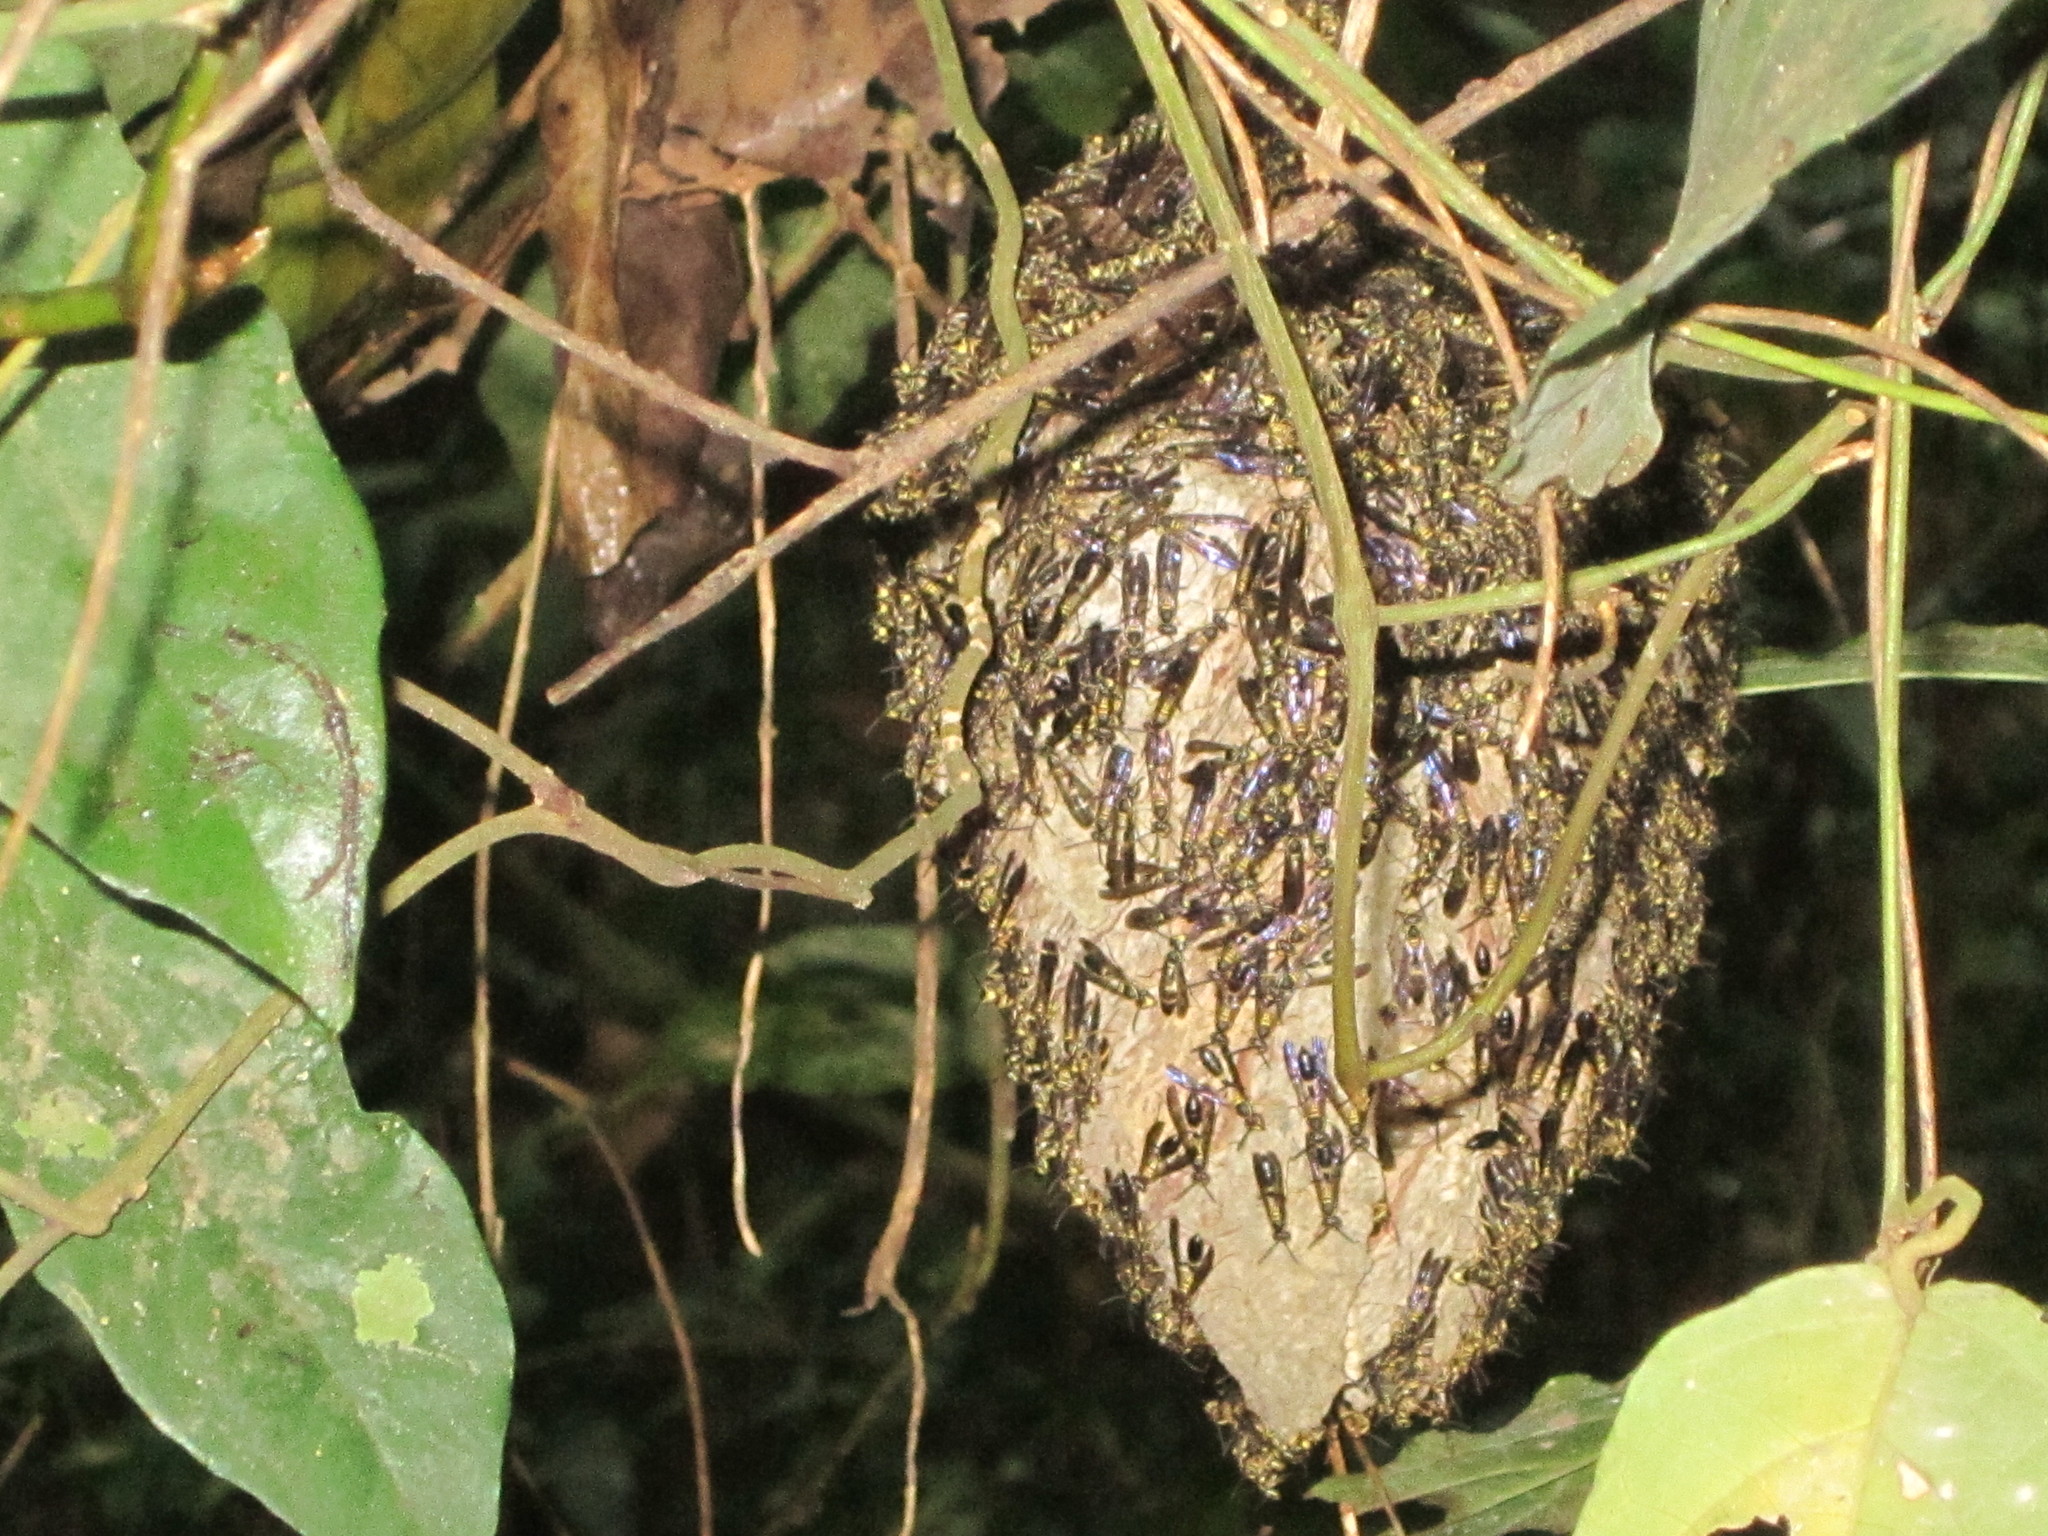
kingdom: Animalia
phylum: Arthropoda
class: Insecta
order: Hymenoptera
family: Vespidae
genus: Polybioides
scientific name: Polybioides tabidus
